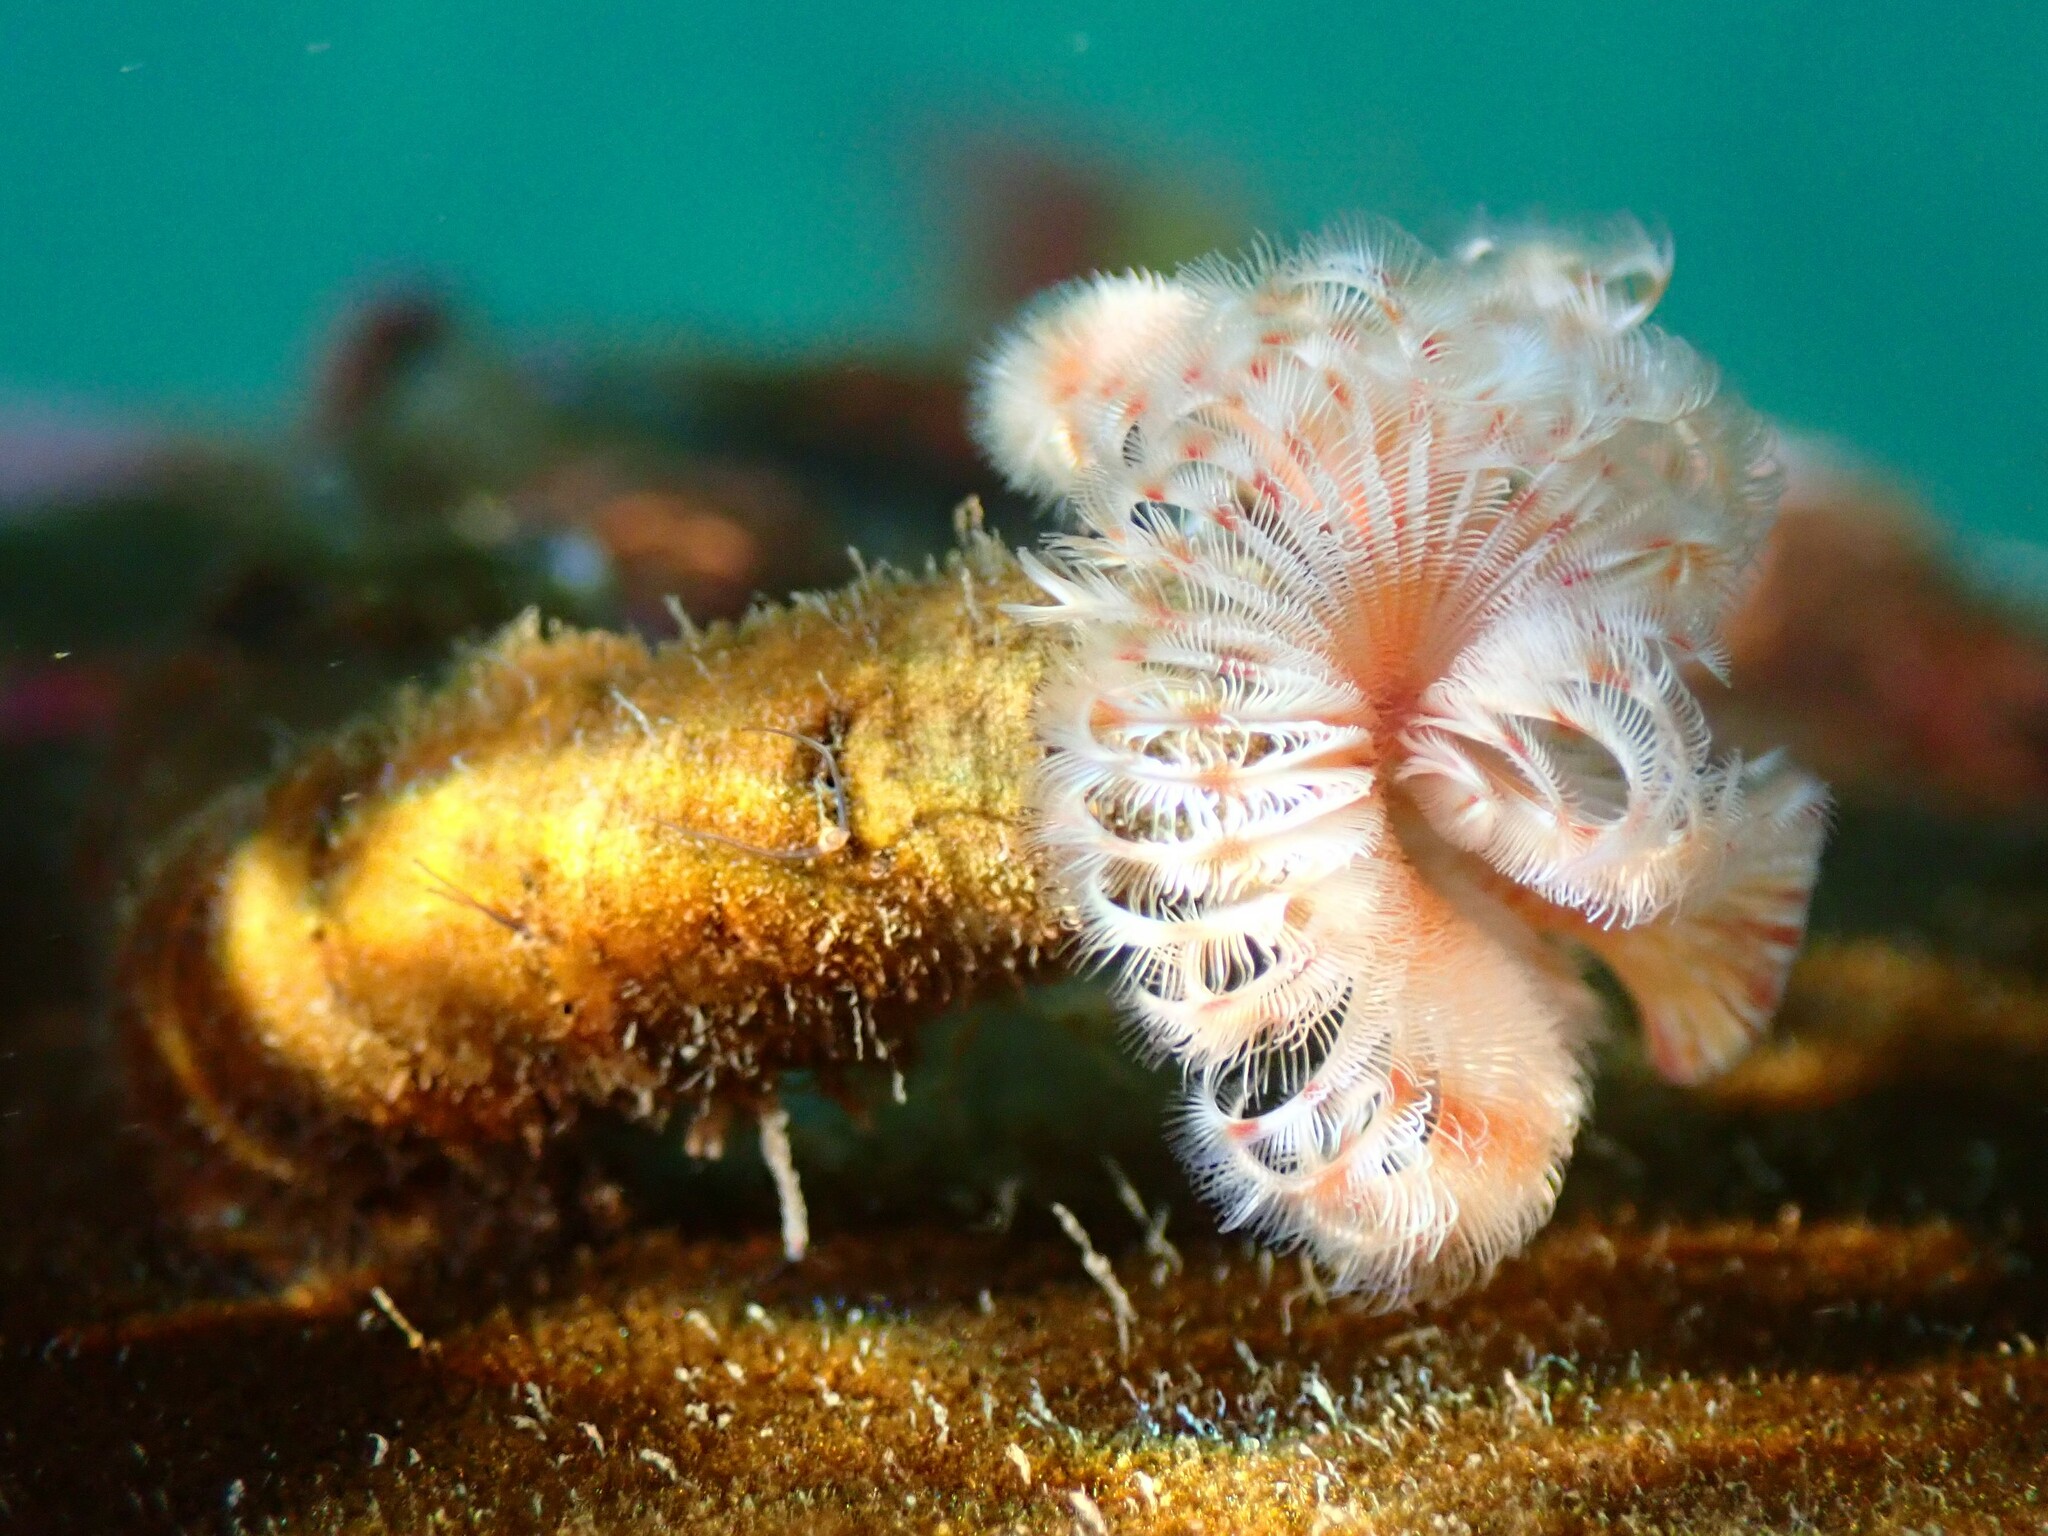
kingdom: Animalia
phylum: Annelida
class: Polychaeta
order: Sabellida
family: Serpulidae
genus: Serpula
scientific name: Serpula columbiana
